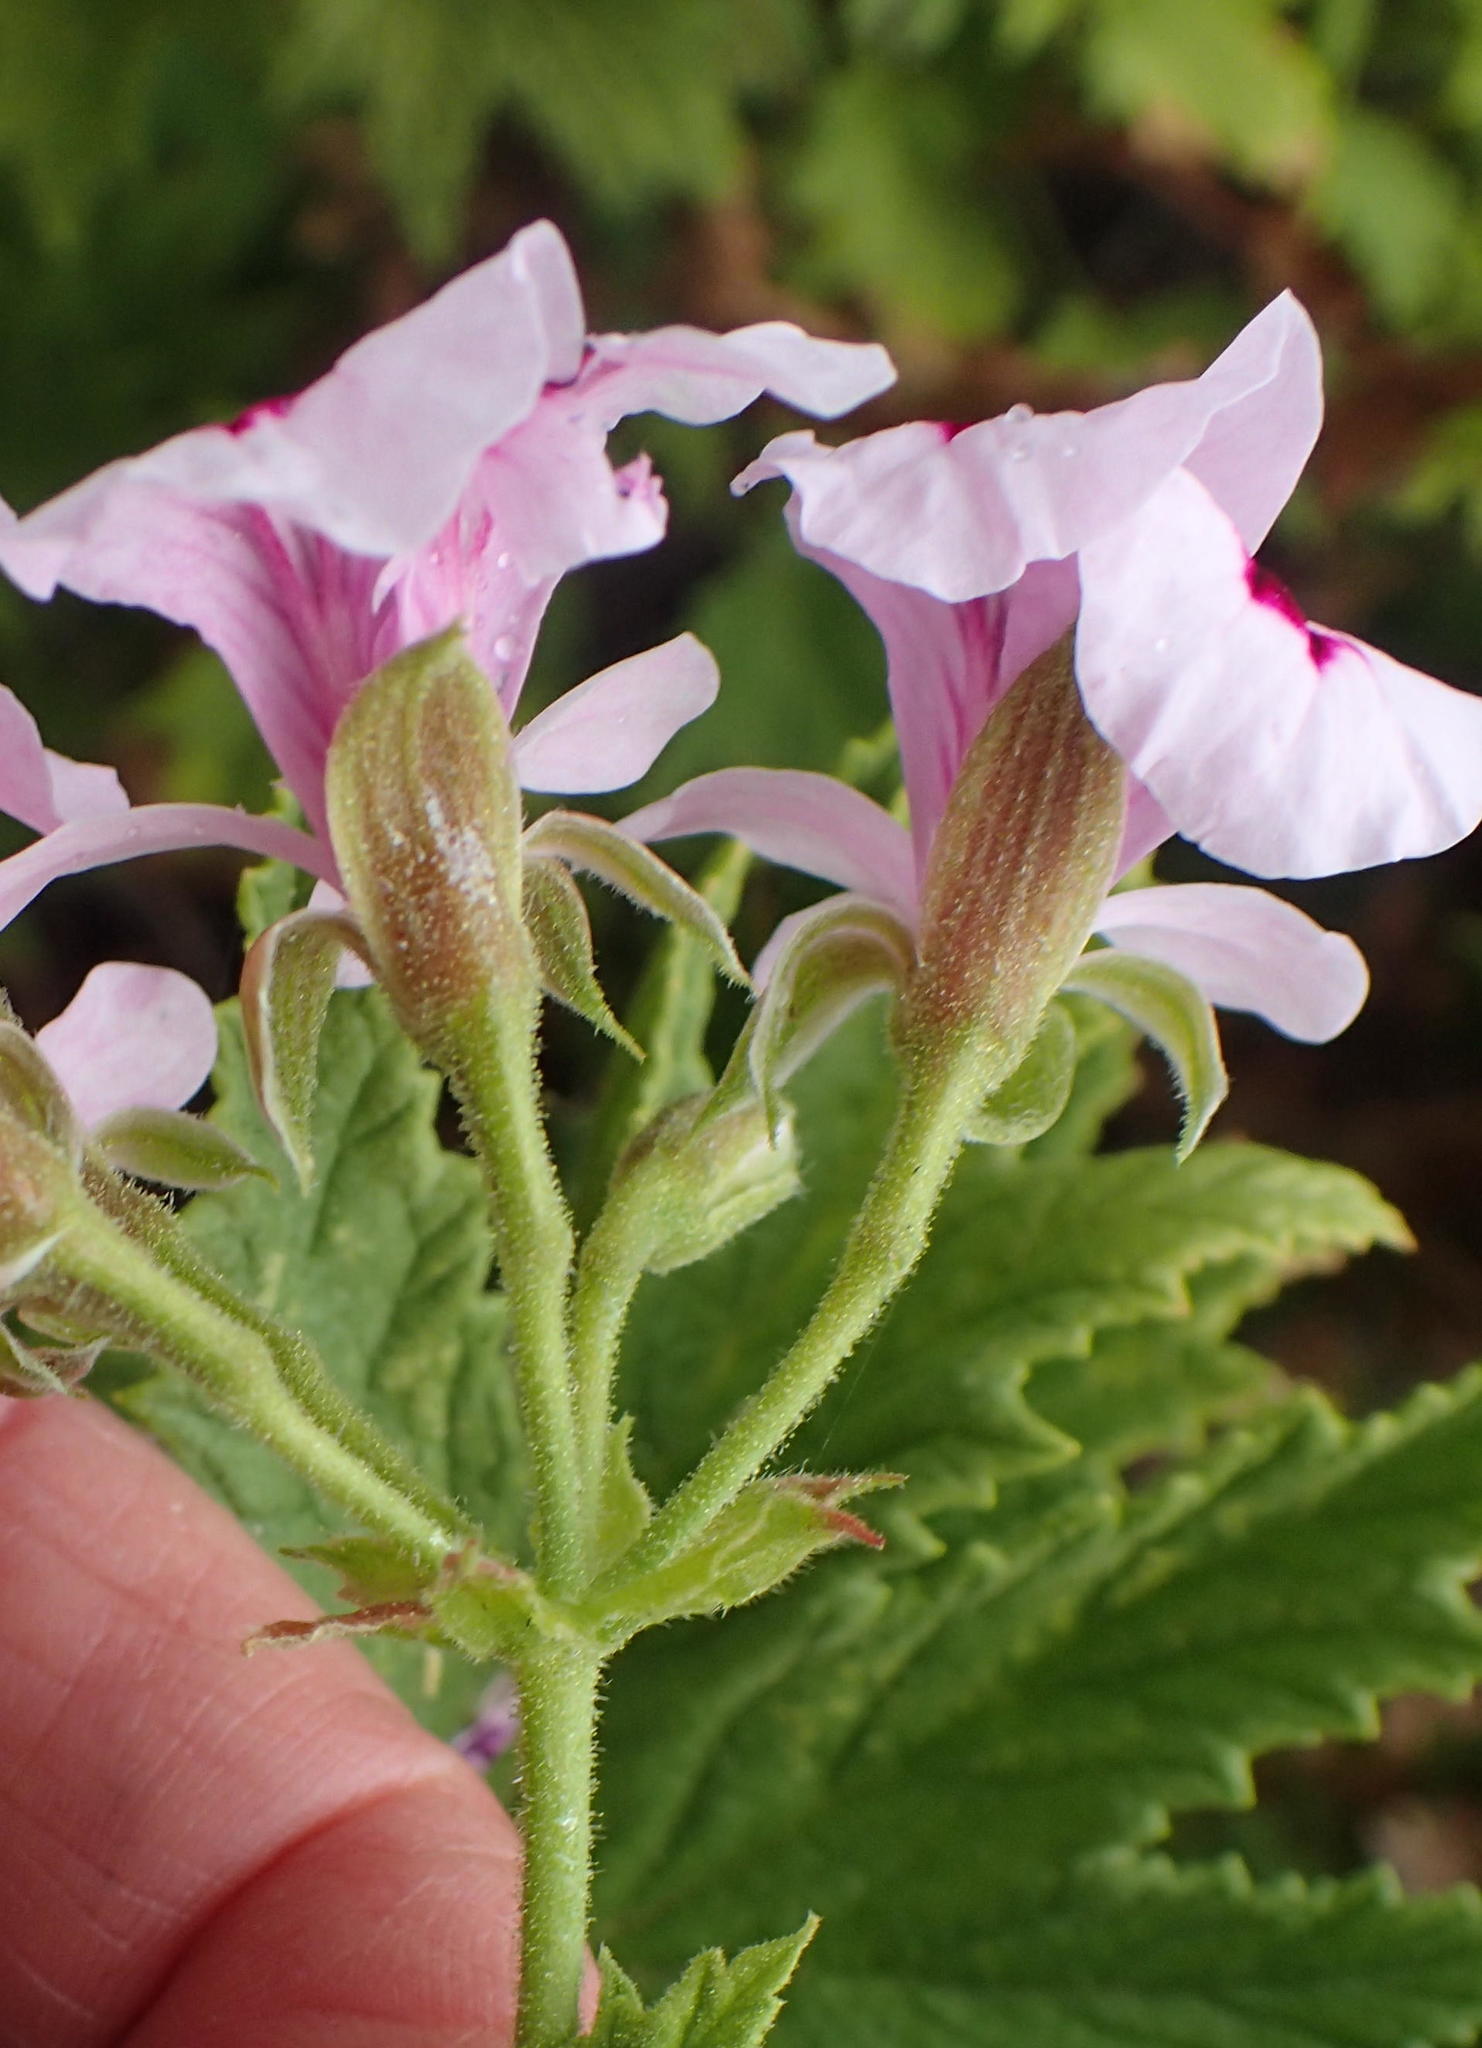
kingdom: Plantae
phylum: Tracheophyta
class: Magnoliopsida
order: Geraniales
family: Geraniaceae
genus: Pelargonium
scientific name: Pelargonium citronellum
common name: Lemon-scent pelargonium
